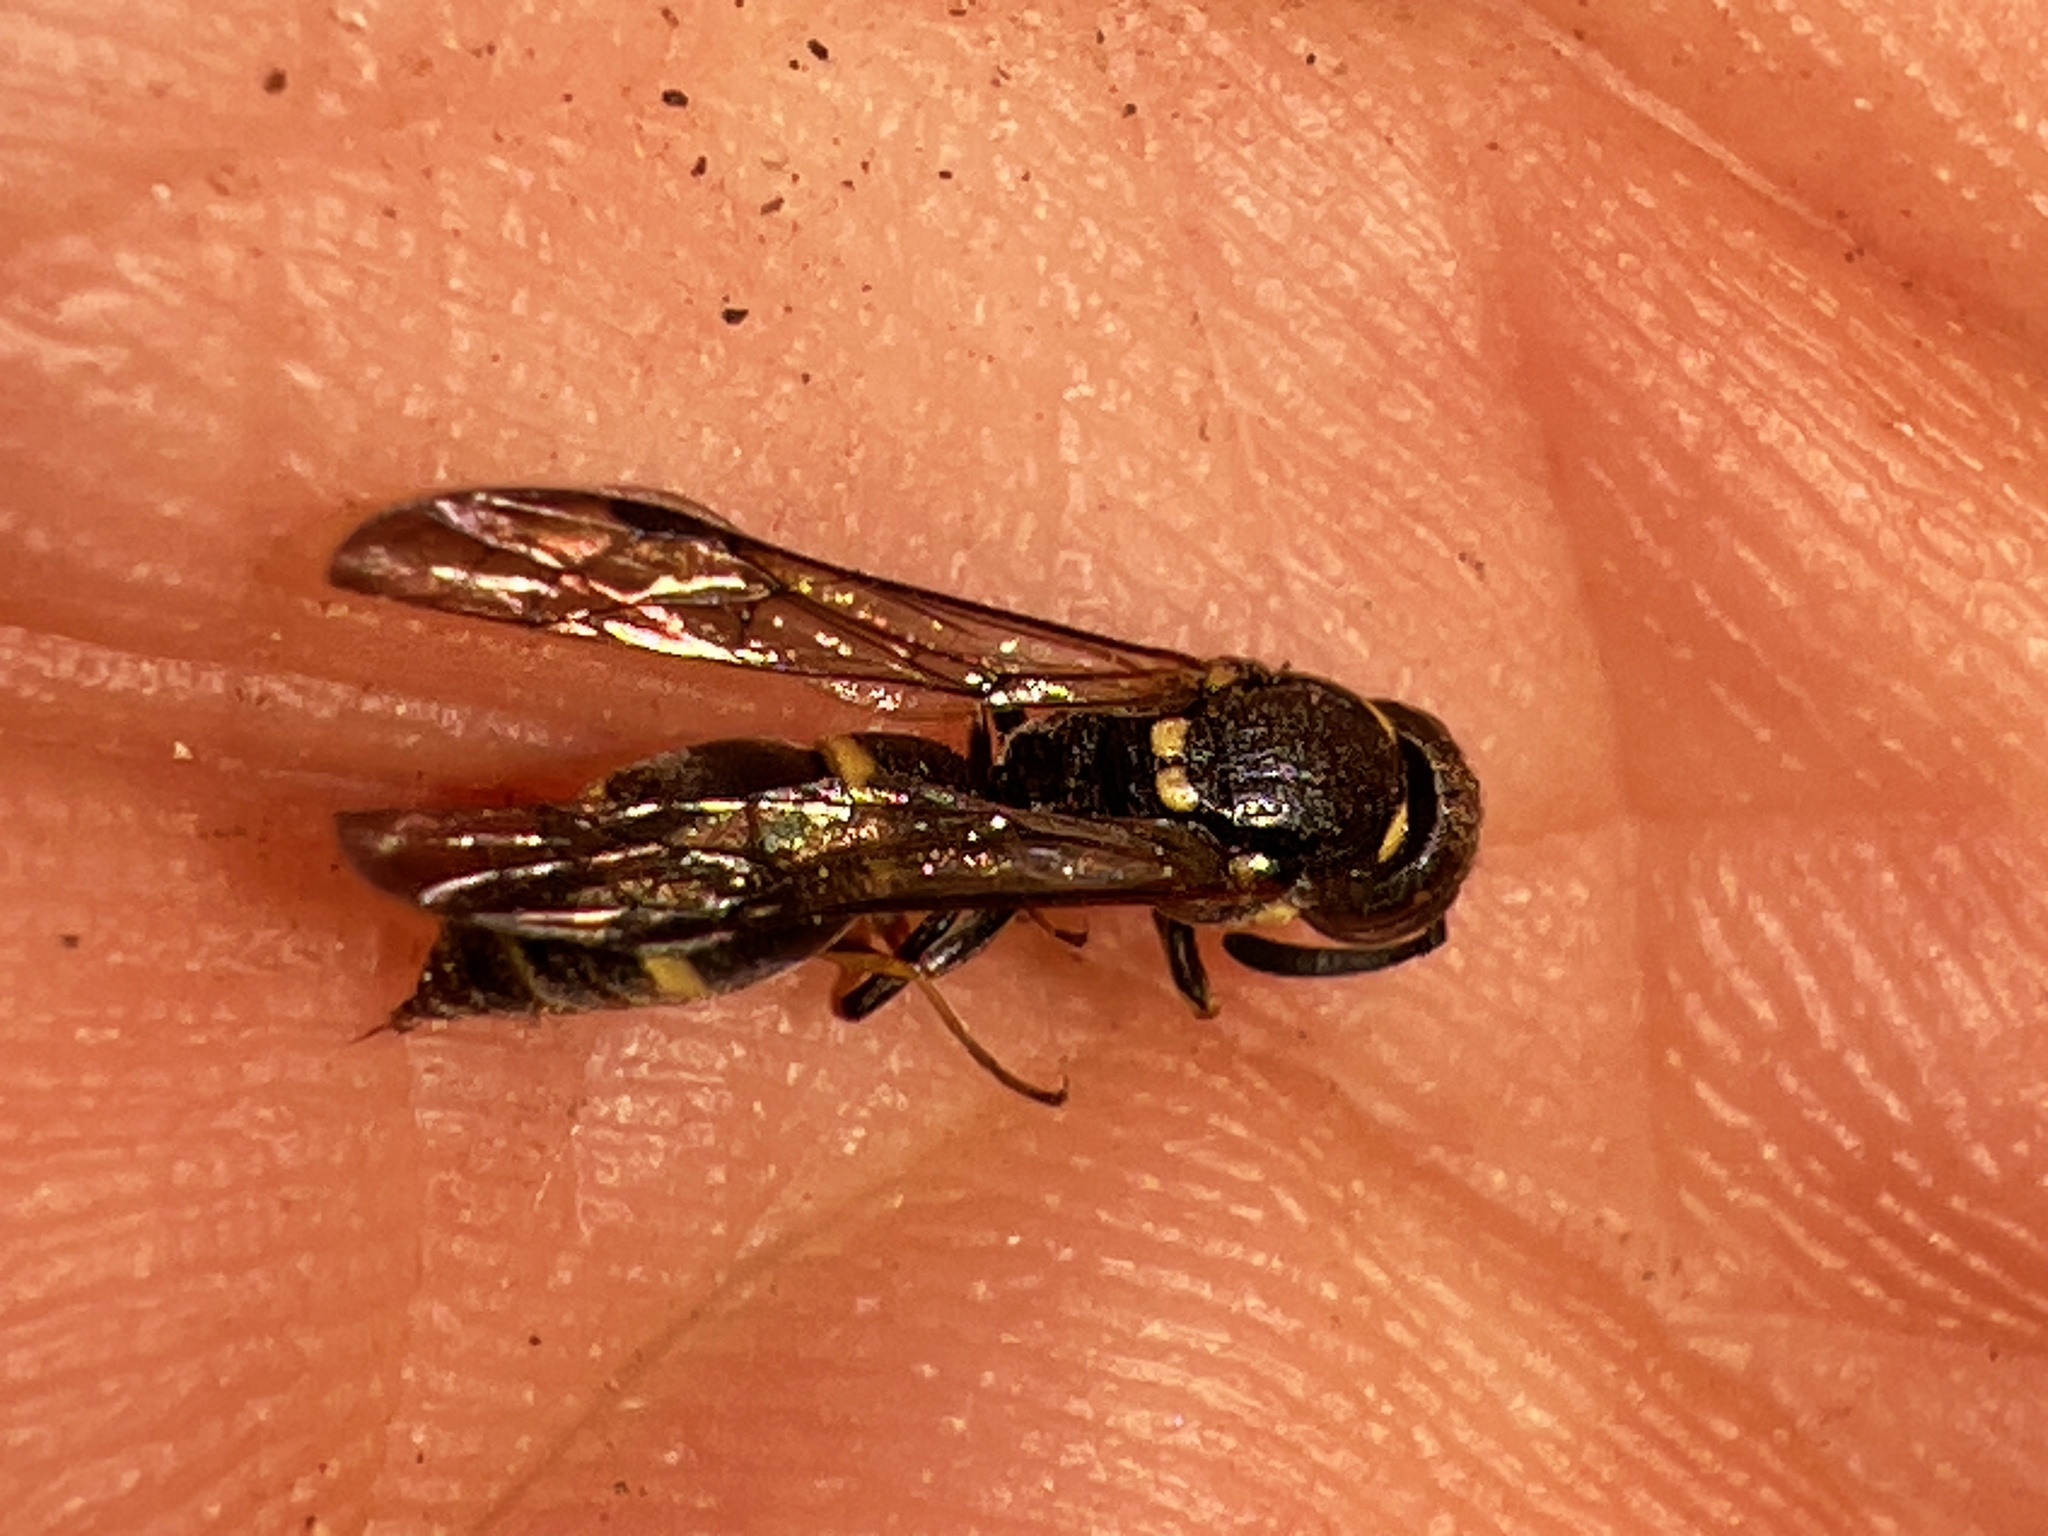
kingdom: Animalia
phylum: Arthropoda
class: Insecta
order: Hymenoptera
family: Eumenidae
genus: Symmorphus
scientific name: Symmorphus canadensis
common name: Canadian potter wasp
